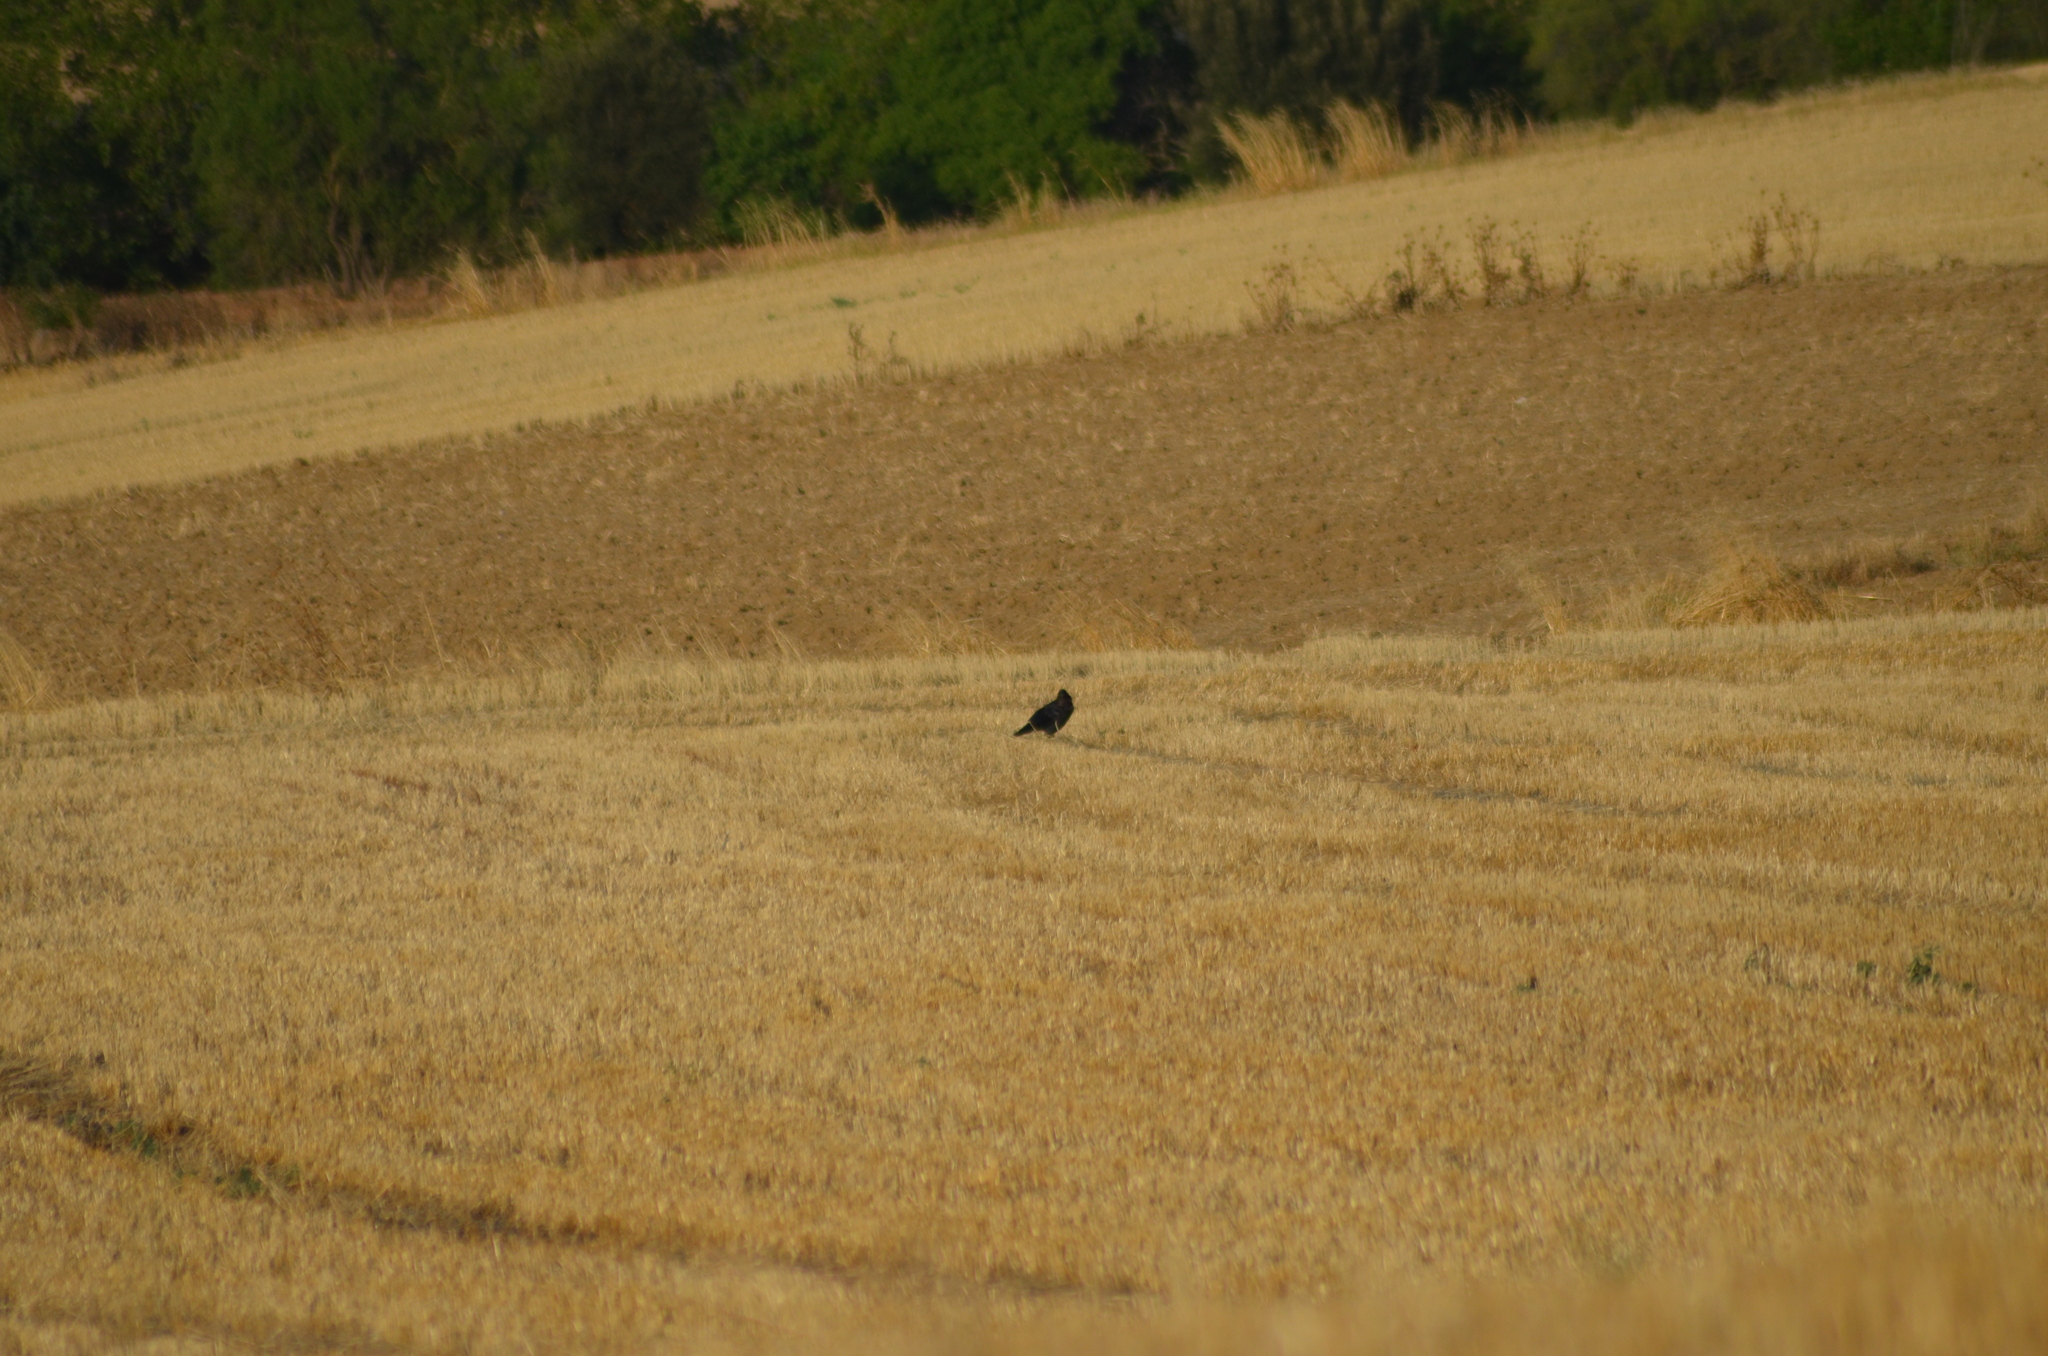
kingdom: Animalia
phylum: Chordata
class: Aves
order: Passeriformes
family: Corvidae
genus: Corvus
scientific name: Corvus corax
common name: Common raven
